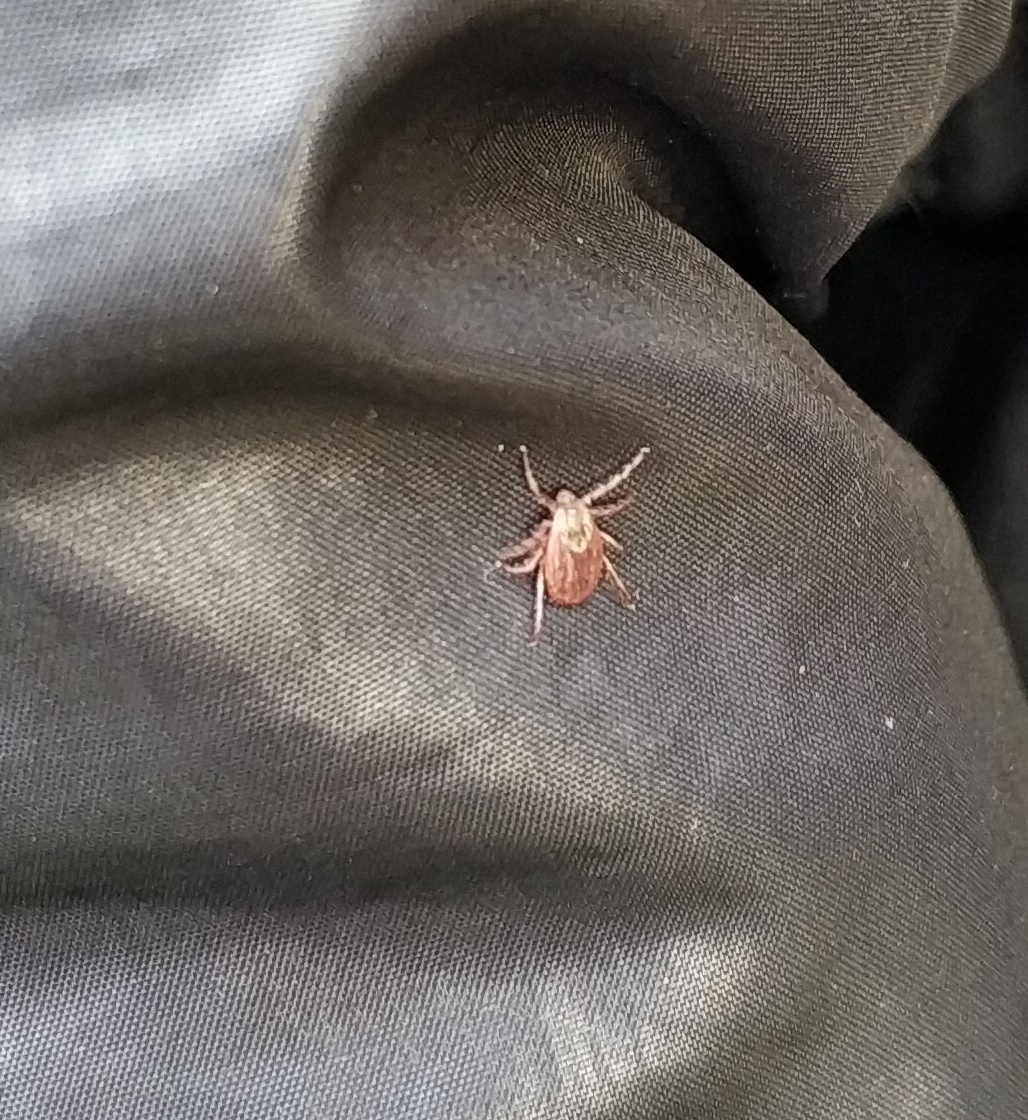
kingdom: Animalia
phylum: Arthropoda
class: Arachnida
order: Ixodida
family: Ixodidae
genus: Dermacentor
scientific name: Dermacentor
